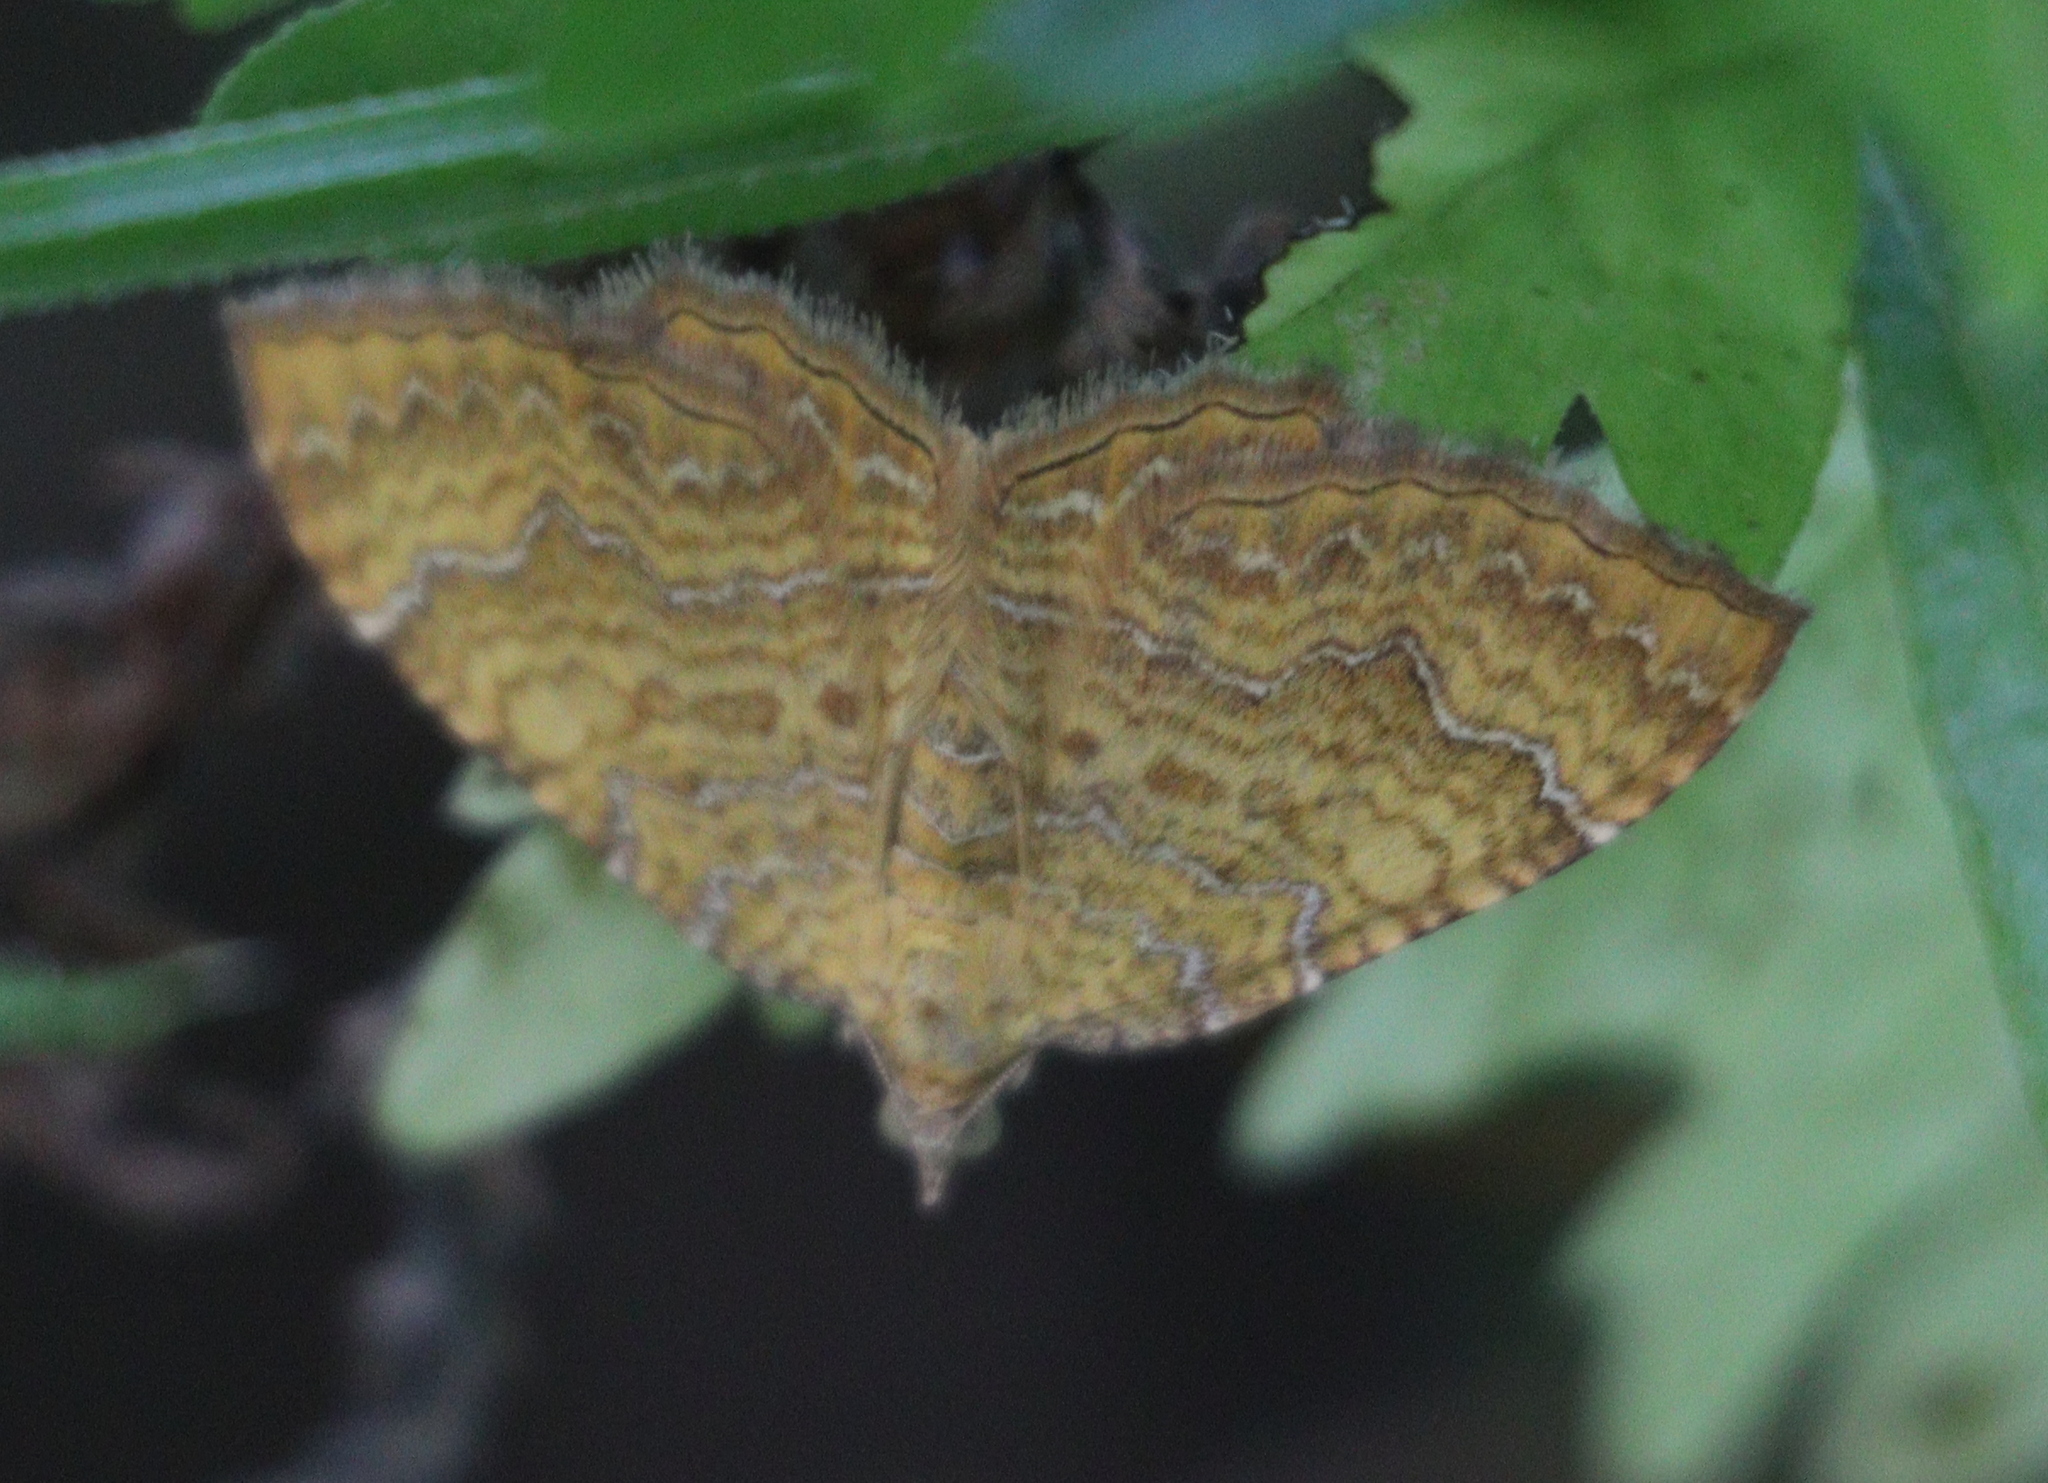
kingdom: Animalia
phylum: Arthropoda
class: Insecta
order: Lepidoptera
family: Geometridae
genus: Camptogramma
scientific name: Camptogramma bilineata
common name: Yellow shell
